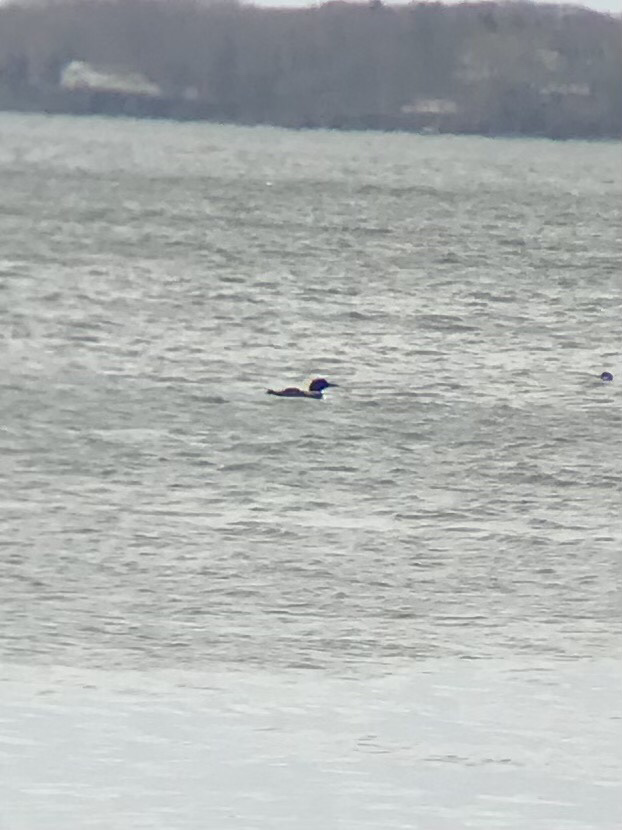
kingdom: Animalia
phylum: Chordata
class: Aves
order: Gaviiformes
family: Gaviidae
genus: Gavia
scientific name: Gavia immer
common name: Common loon
